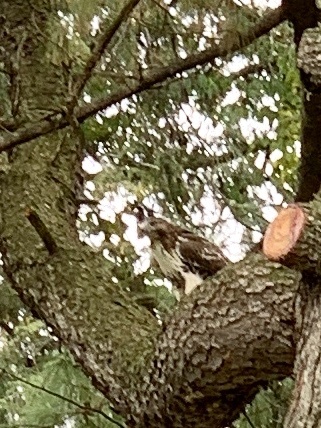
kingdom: Animalia
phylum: Chordata
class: Aves
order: Accipitriformes
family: Accipitridae
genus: Buteo
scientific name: Buteo jamaicensis
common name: Red-tailed hawk
